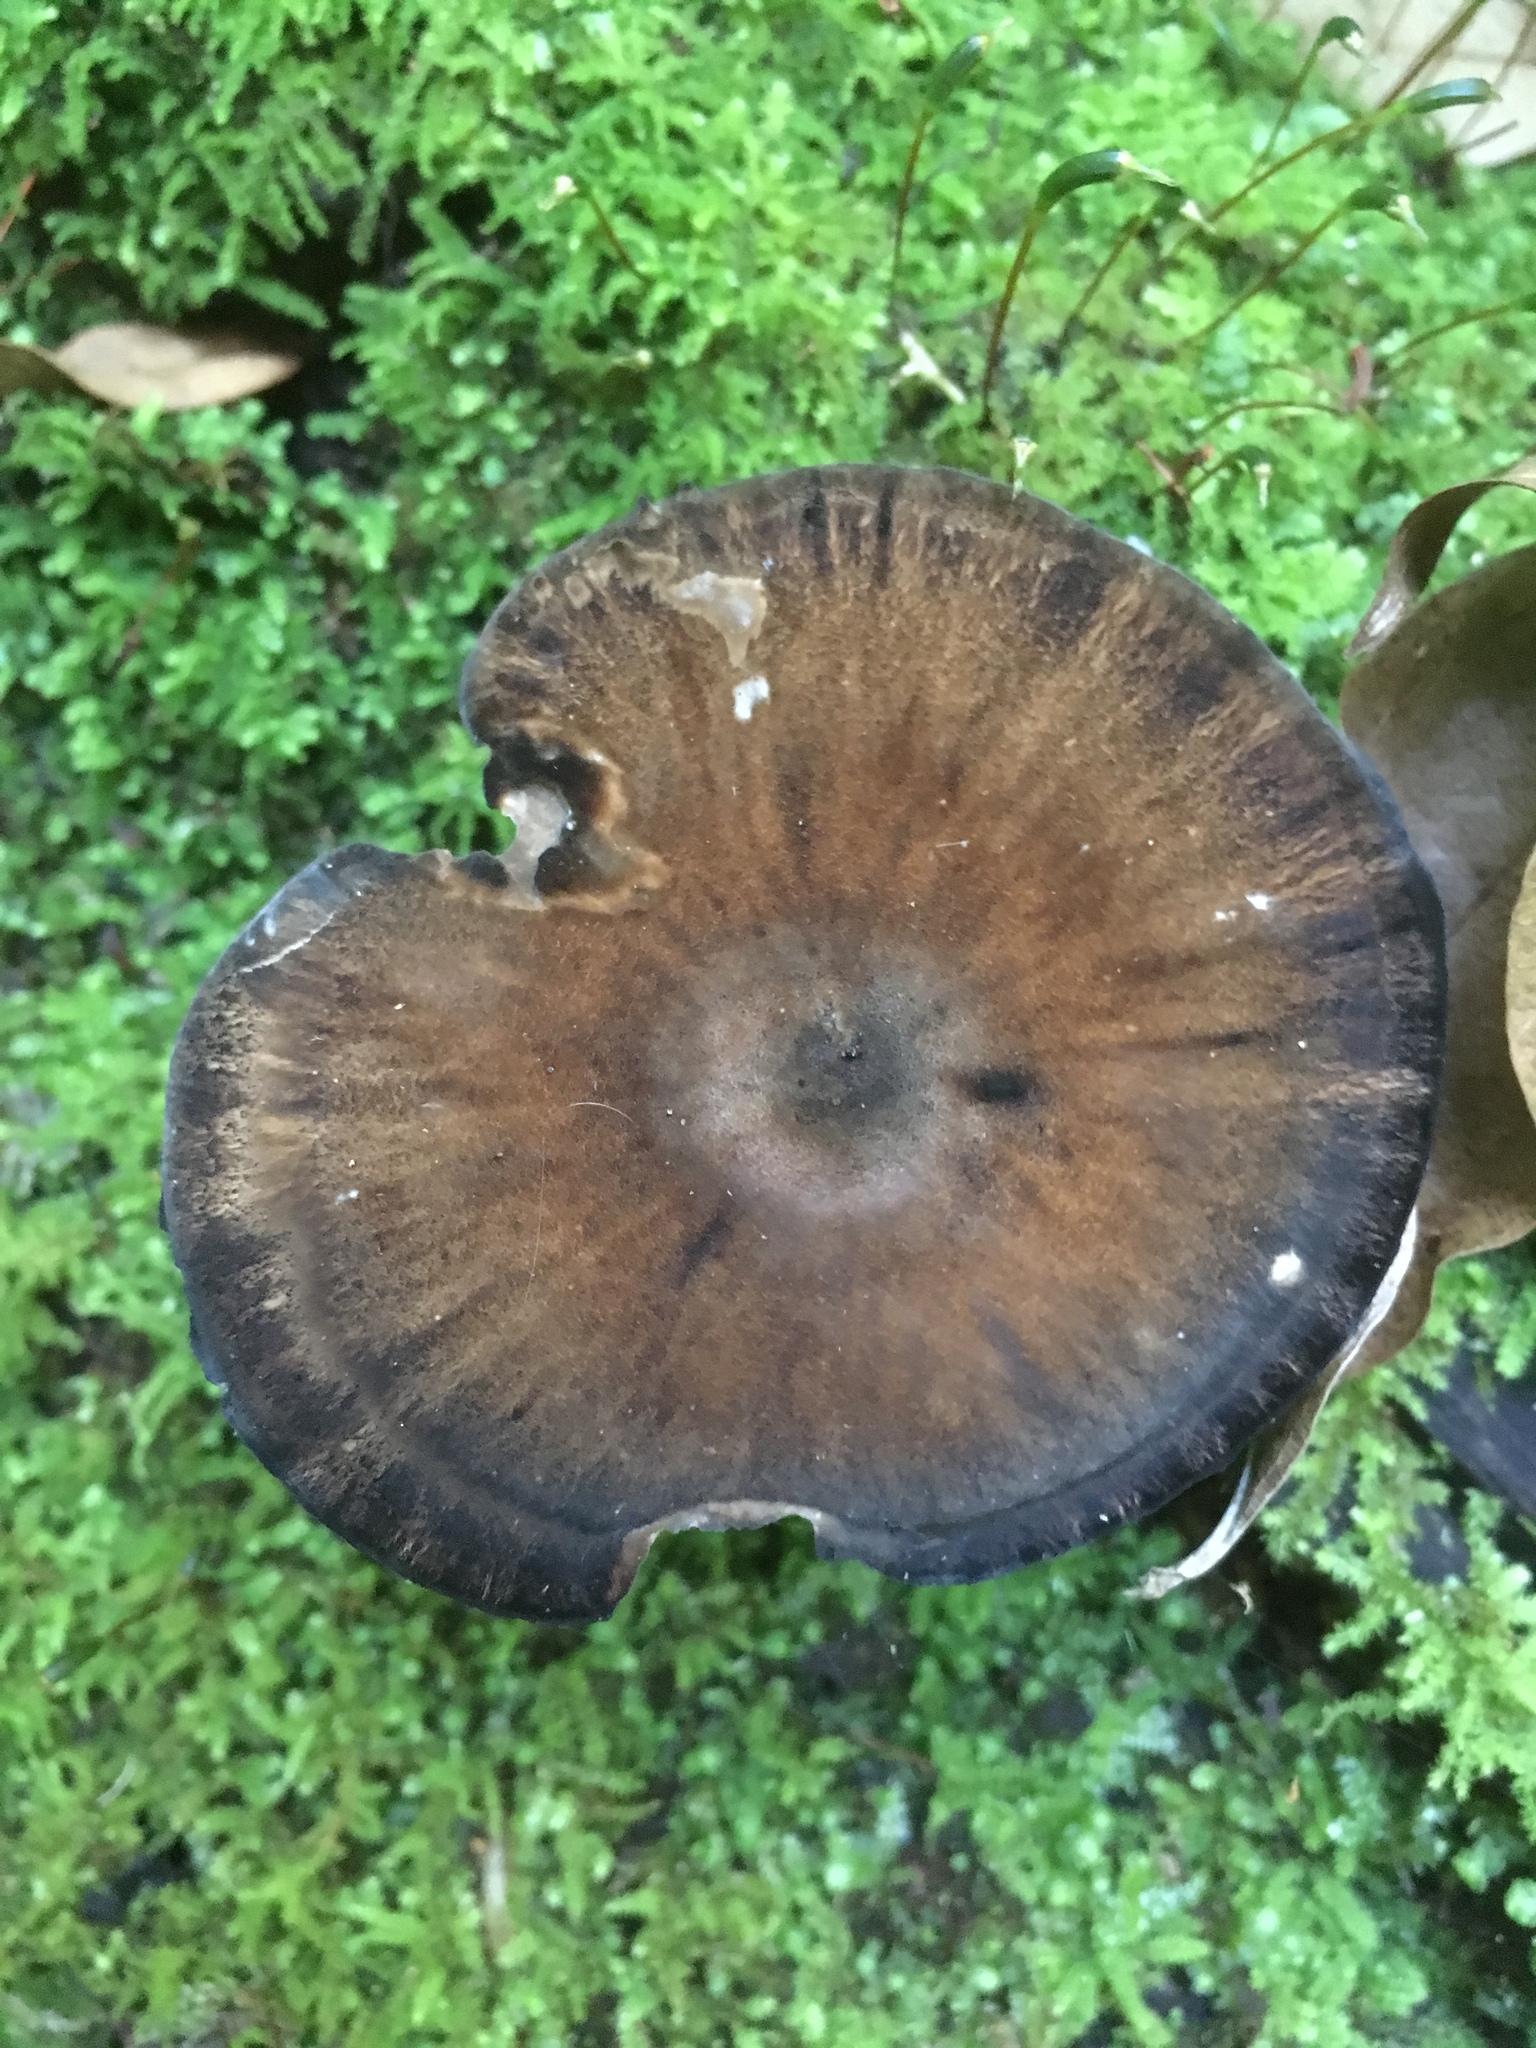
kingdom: Fungi
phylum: Basidiomycota
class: Agaricomycetes
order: Polyporales
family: Polyporaceae
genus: Picipes
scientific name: Picipes melanopus
